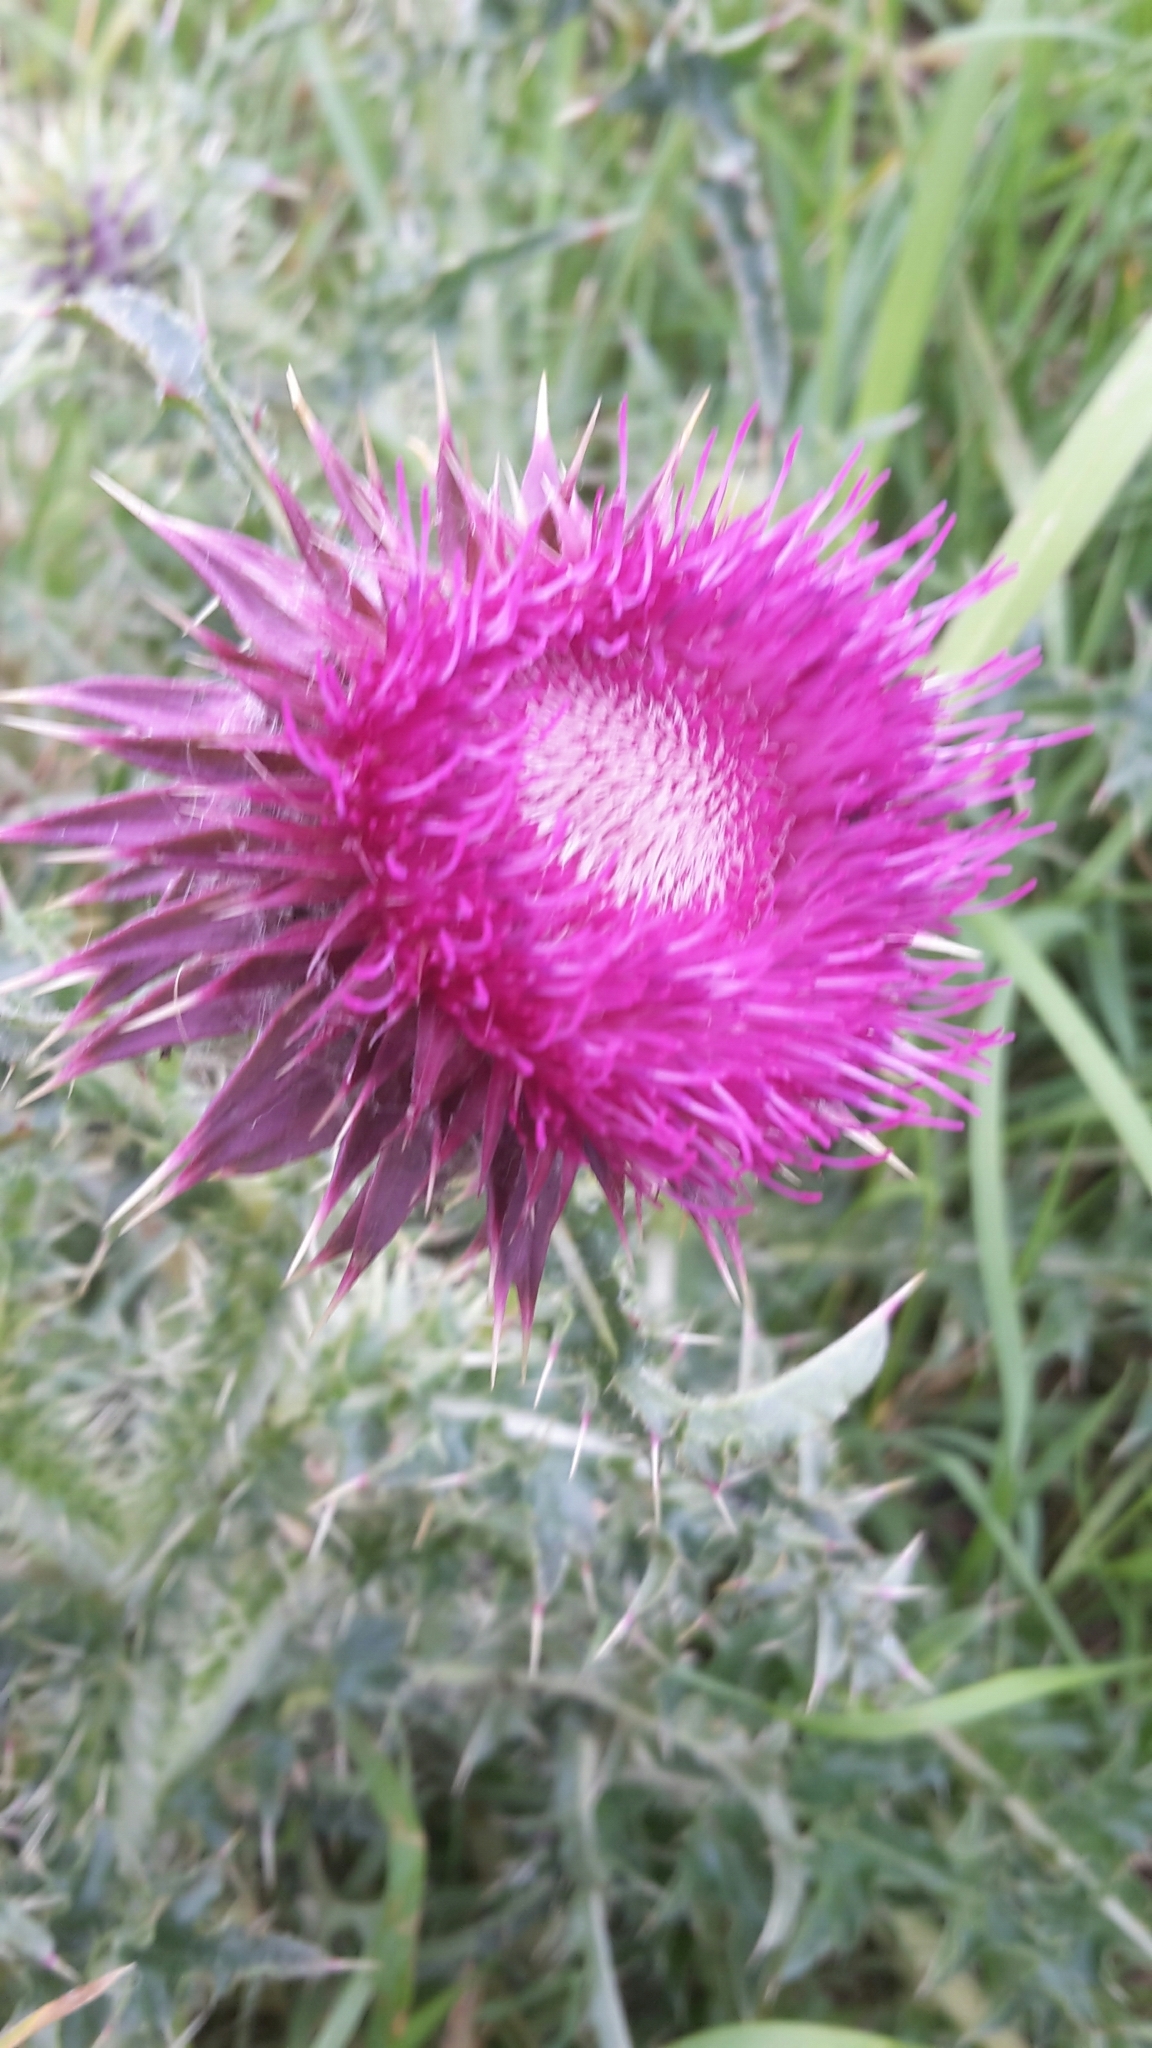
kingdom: Plantae
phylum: Tracheophyta
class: Magnoliopsida
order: Asterales
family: Asteraceae
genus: Carduus
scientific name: Carduus nutans
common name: Musk thistle
